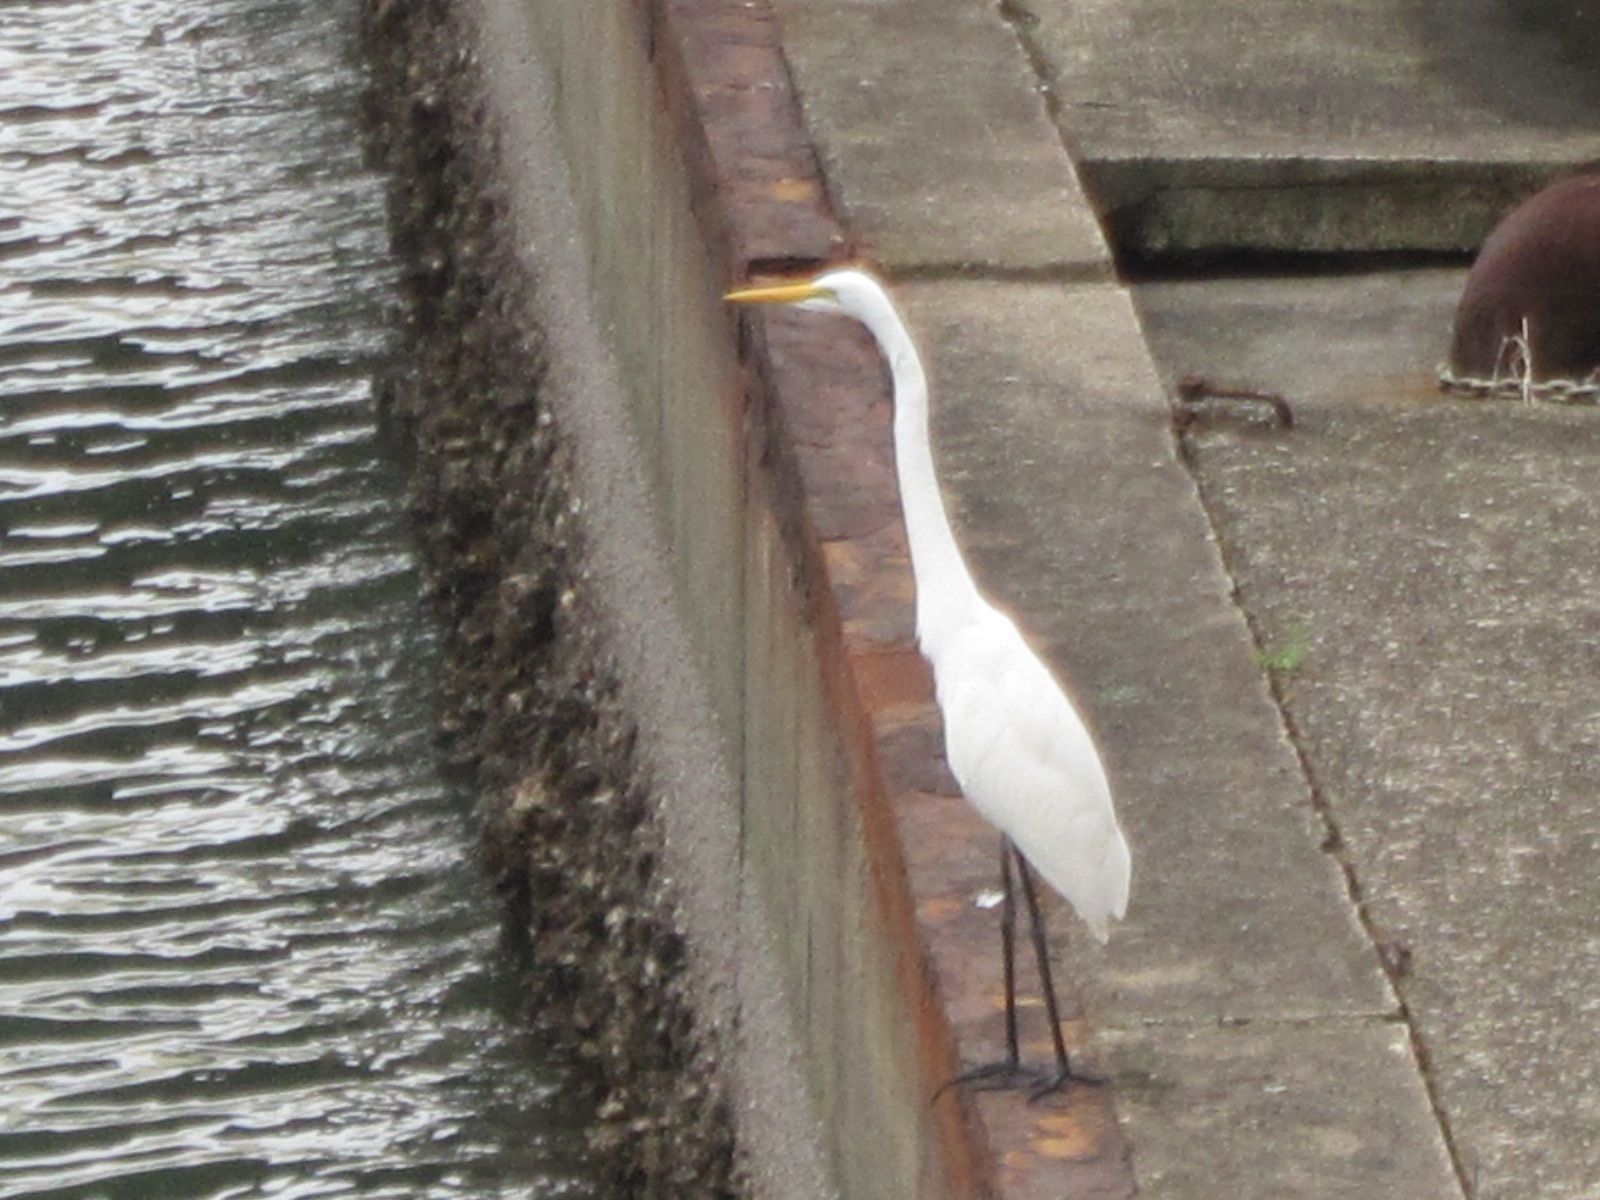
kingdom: Animalia
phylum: Chordata
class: Aves
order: Pelecaniformes
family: Ardeidae
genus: Ardea
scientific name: Ardea modesta
